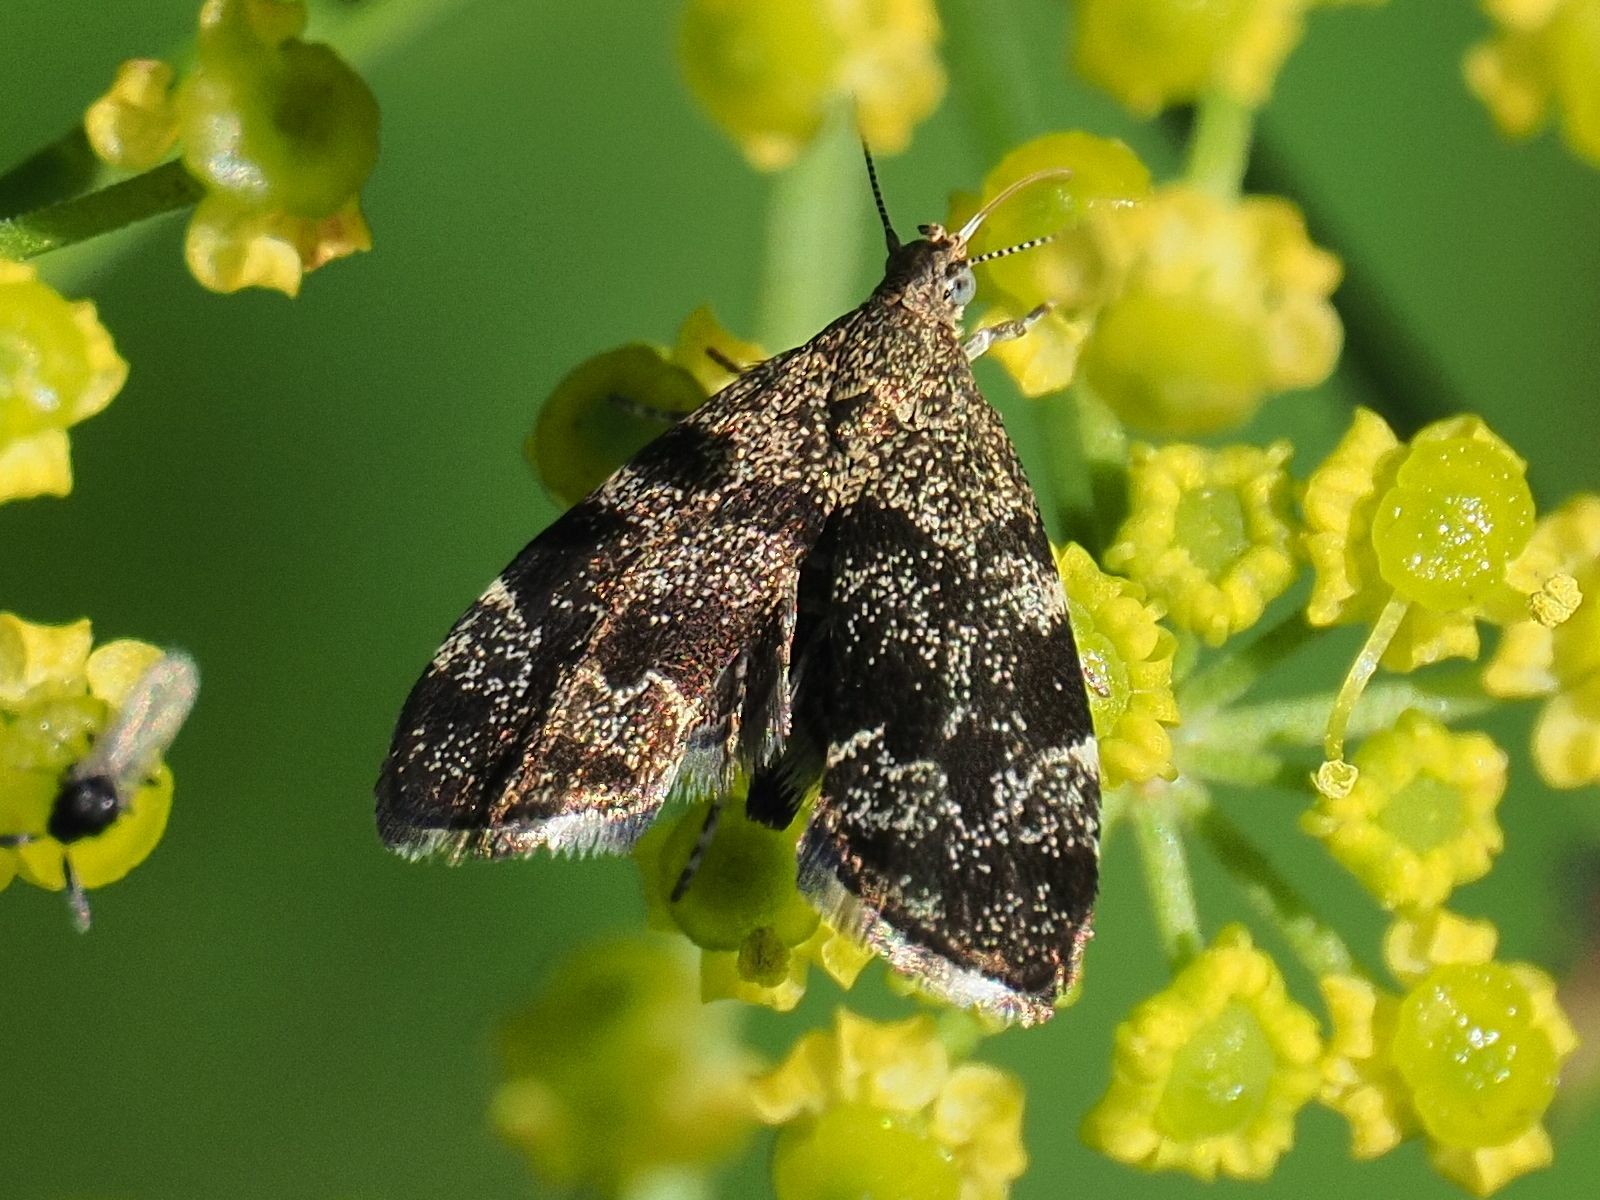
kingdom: Animalia
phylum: Arthropoda
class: Insecta
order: Lepidoptera
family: Choreutidae
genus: Anthophila
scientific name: Anthophila fabriciana
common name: Nettle-tap
